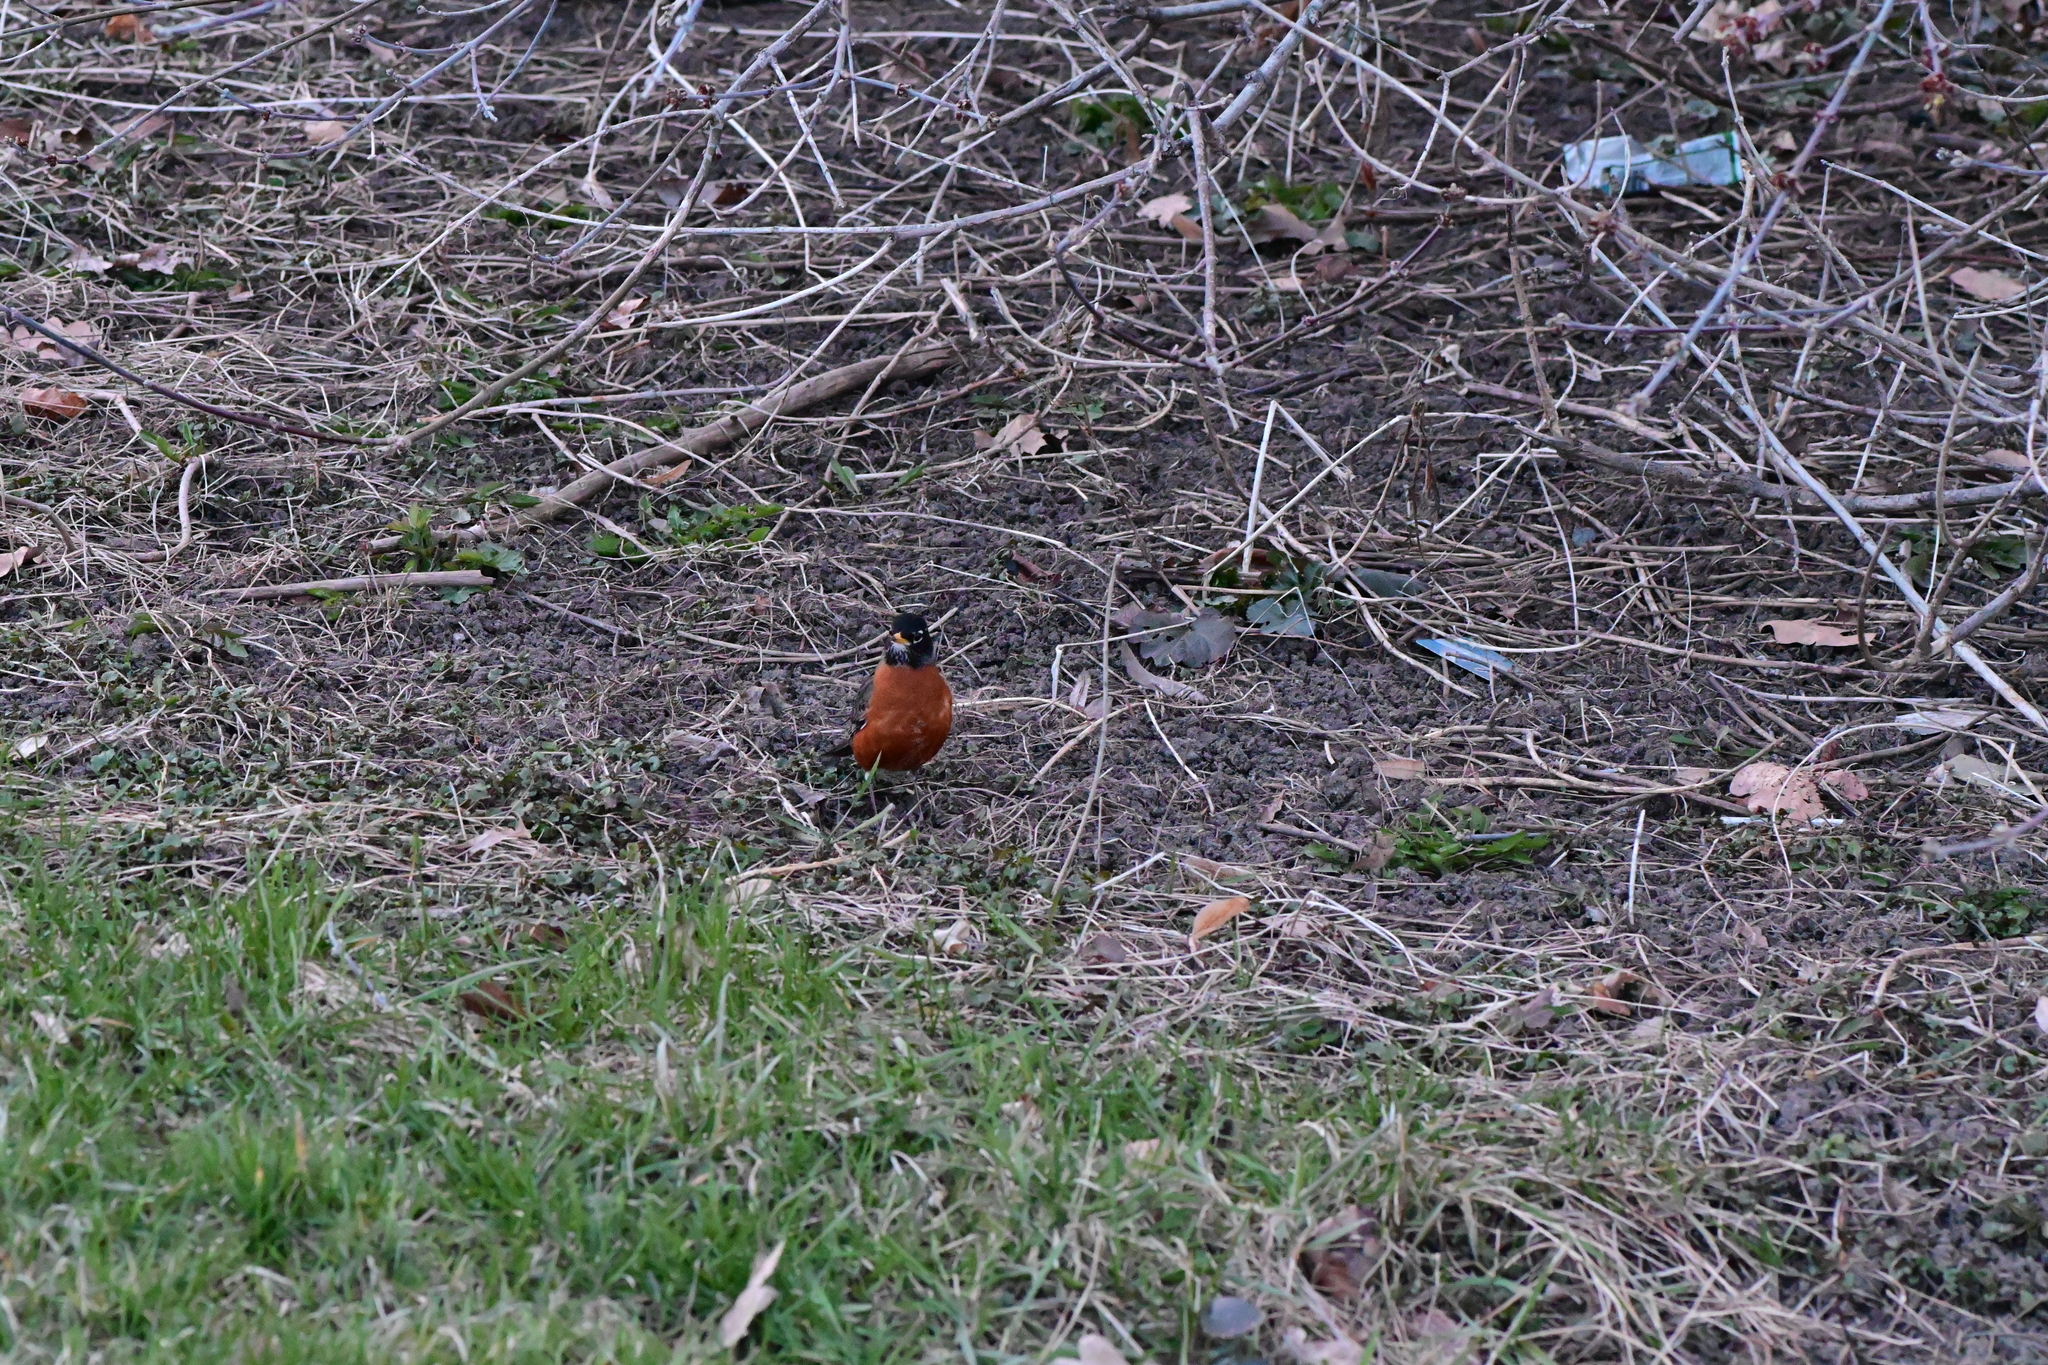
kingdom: Animalia
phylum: Chordata
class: Aves
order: Passeriformes
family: Turdidae
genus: Turdus
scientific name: Turdus migratorius
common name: American robin
